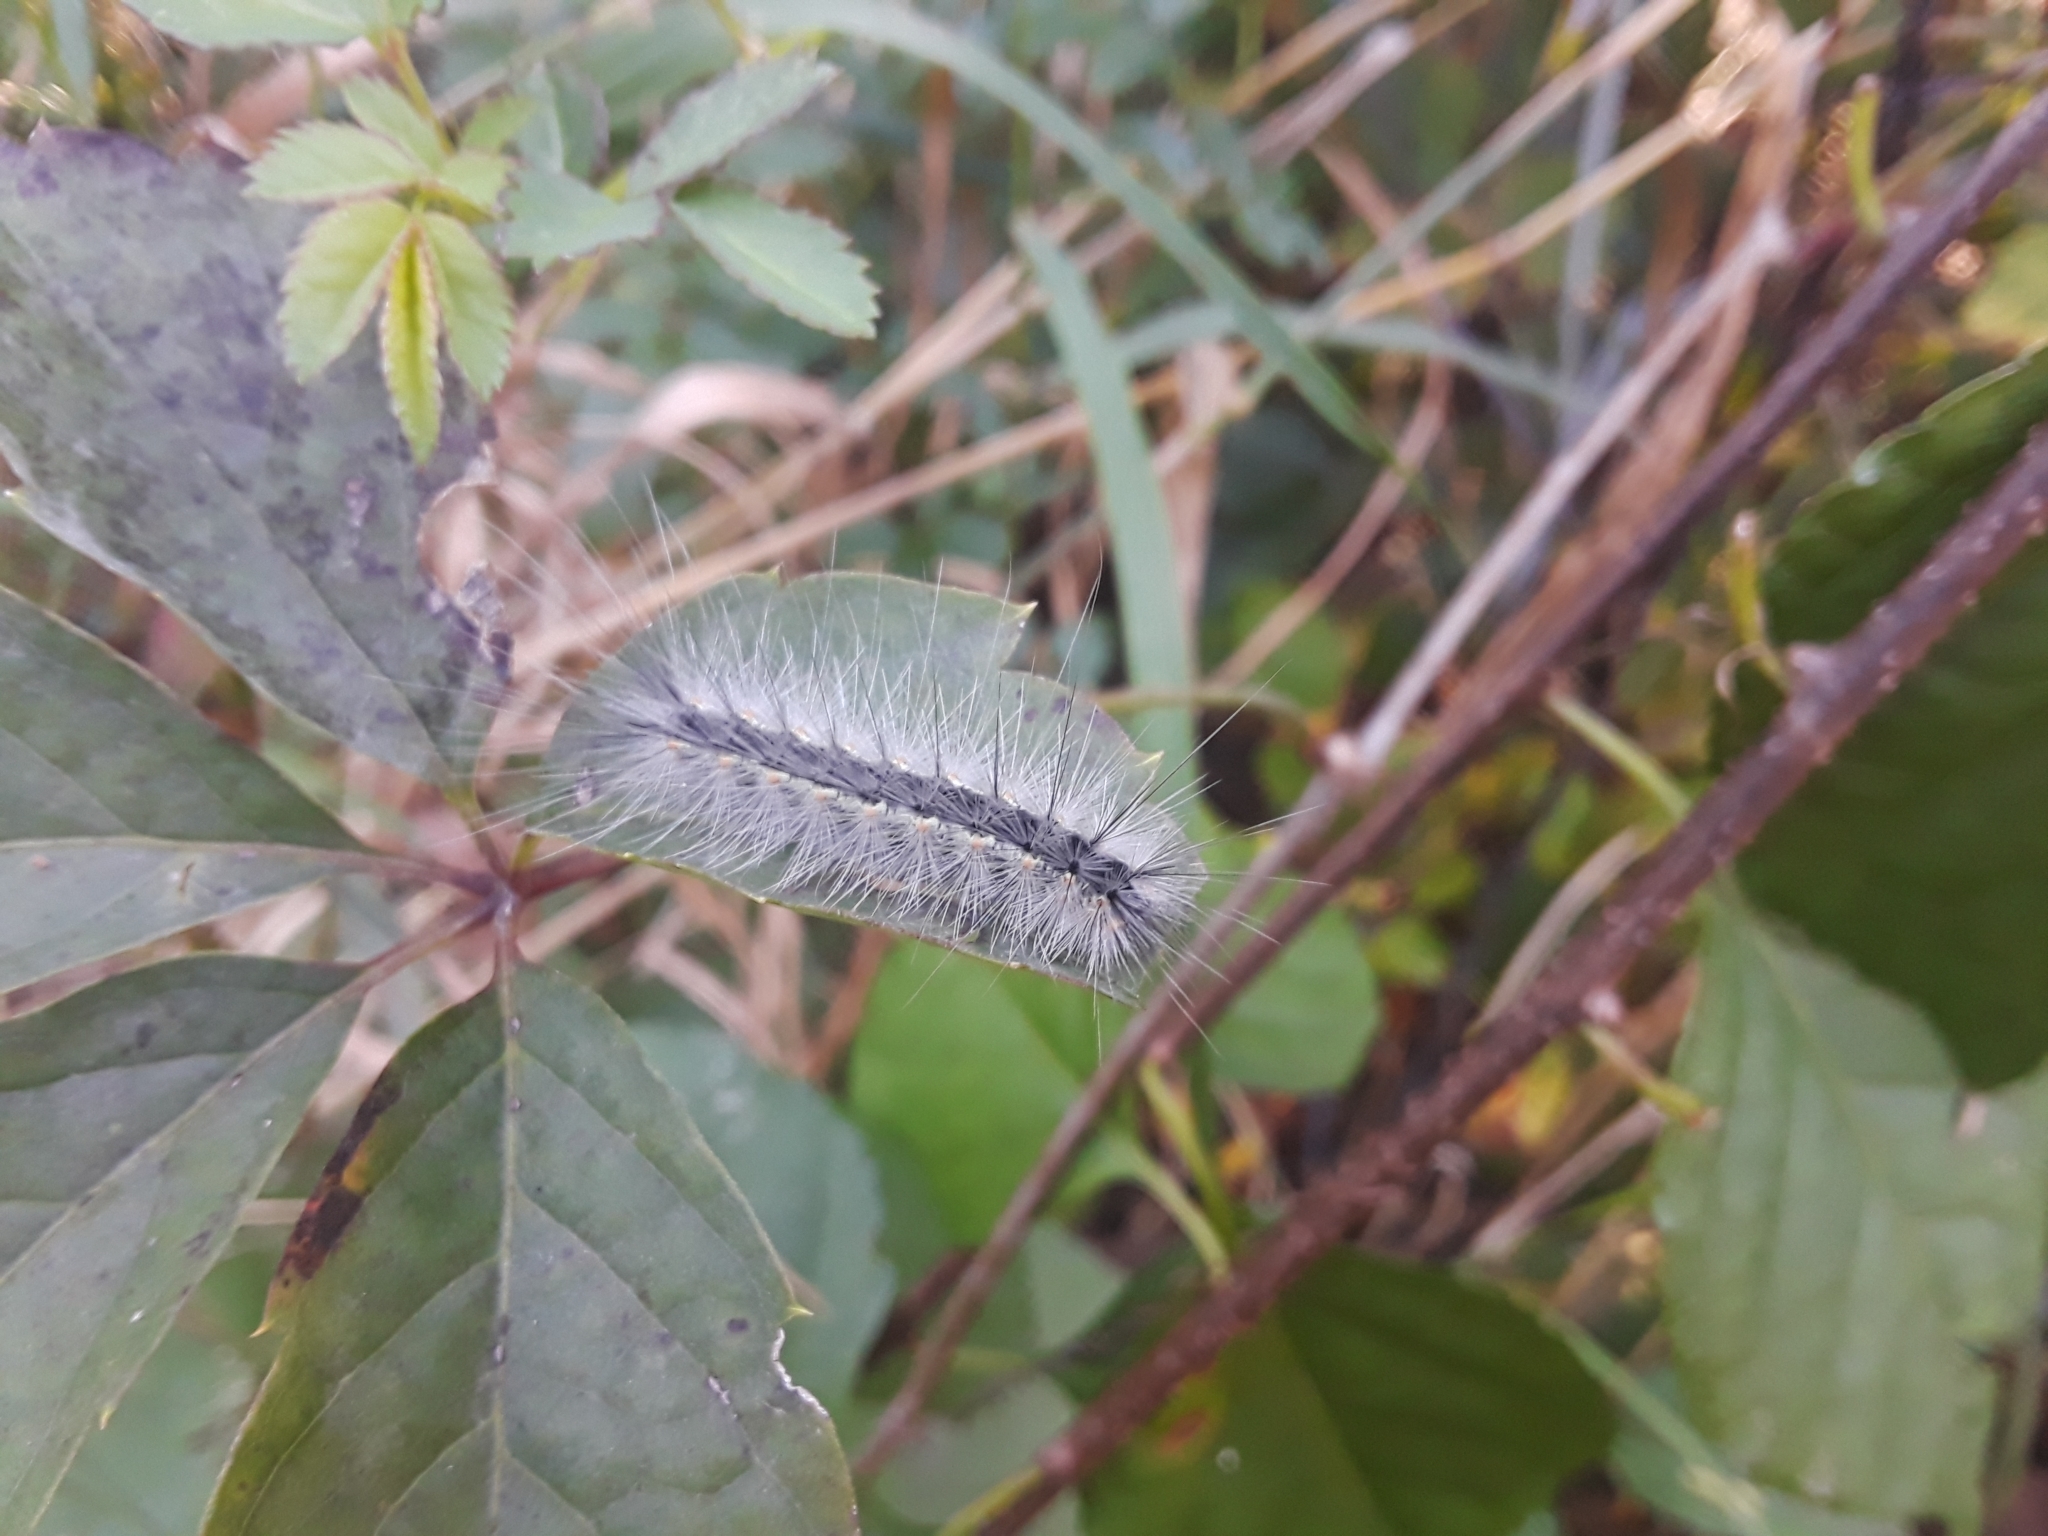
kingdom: Animalia
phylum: Arthropoda
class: Insecta
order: Lepidoptera
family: Erebidae
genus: Hyphantria
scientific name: Hyphantria cunea
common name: American white moth
